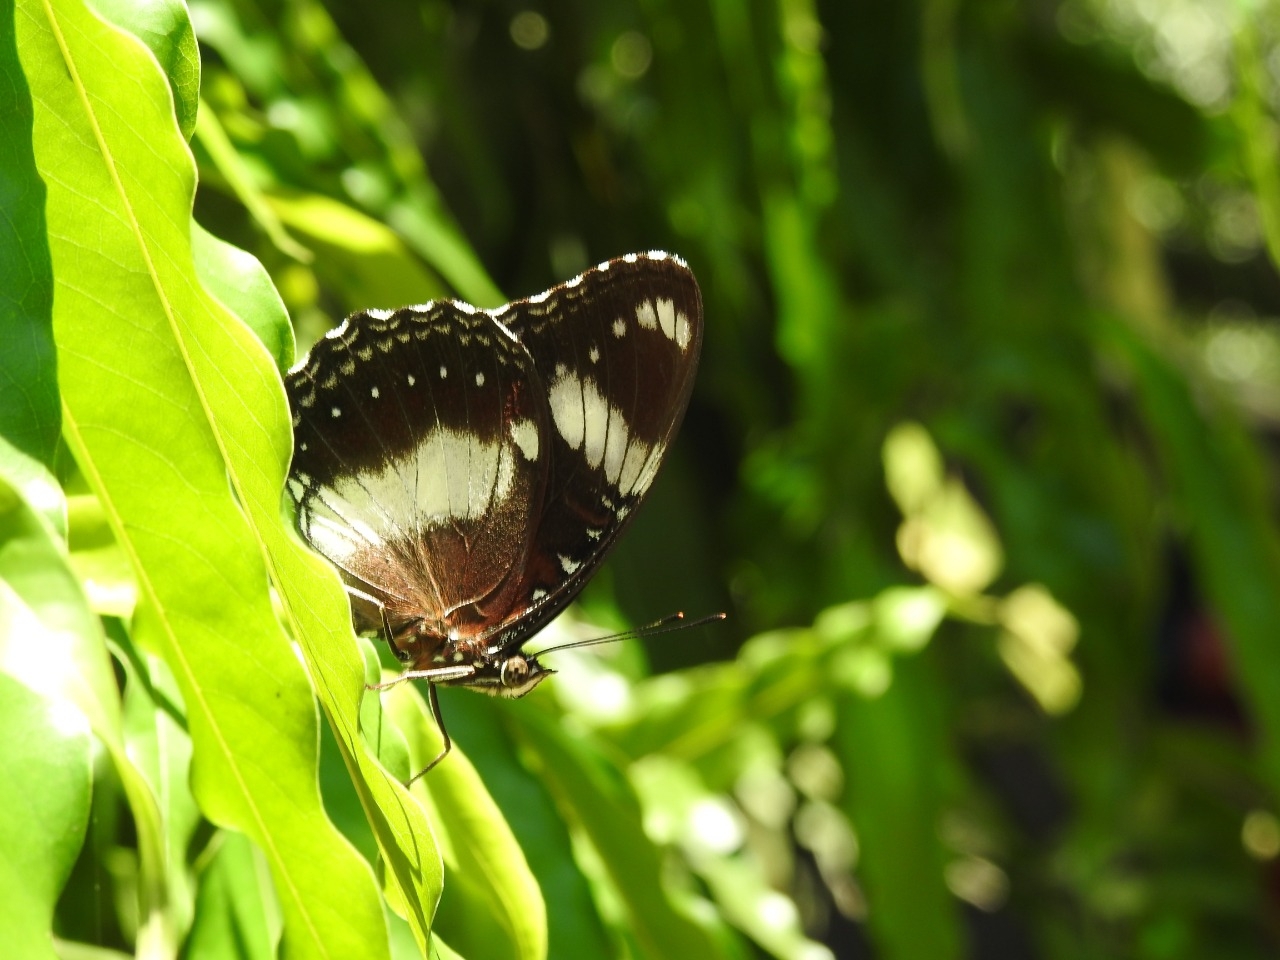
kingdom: Animalia
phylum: Arthropoda
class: Insecta
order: Lepidoptera
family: Nymphalidae
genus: Hypolimnas
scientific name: Hypolimnas bolina
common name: Great eggfly
